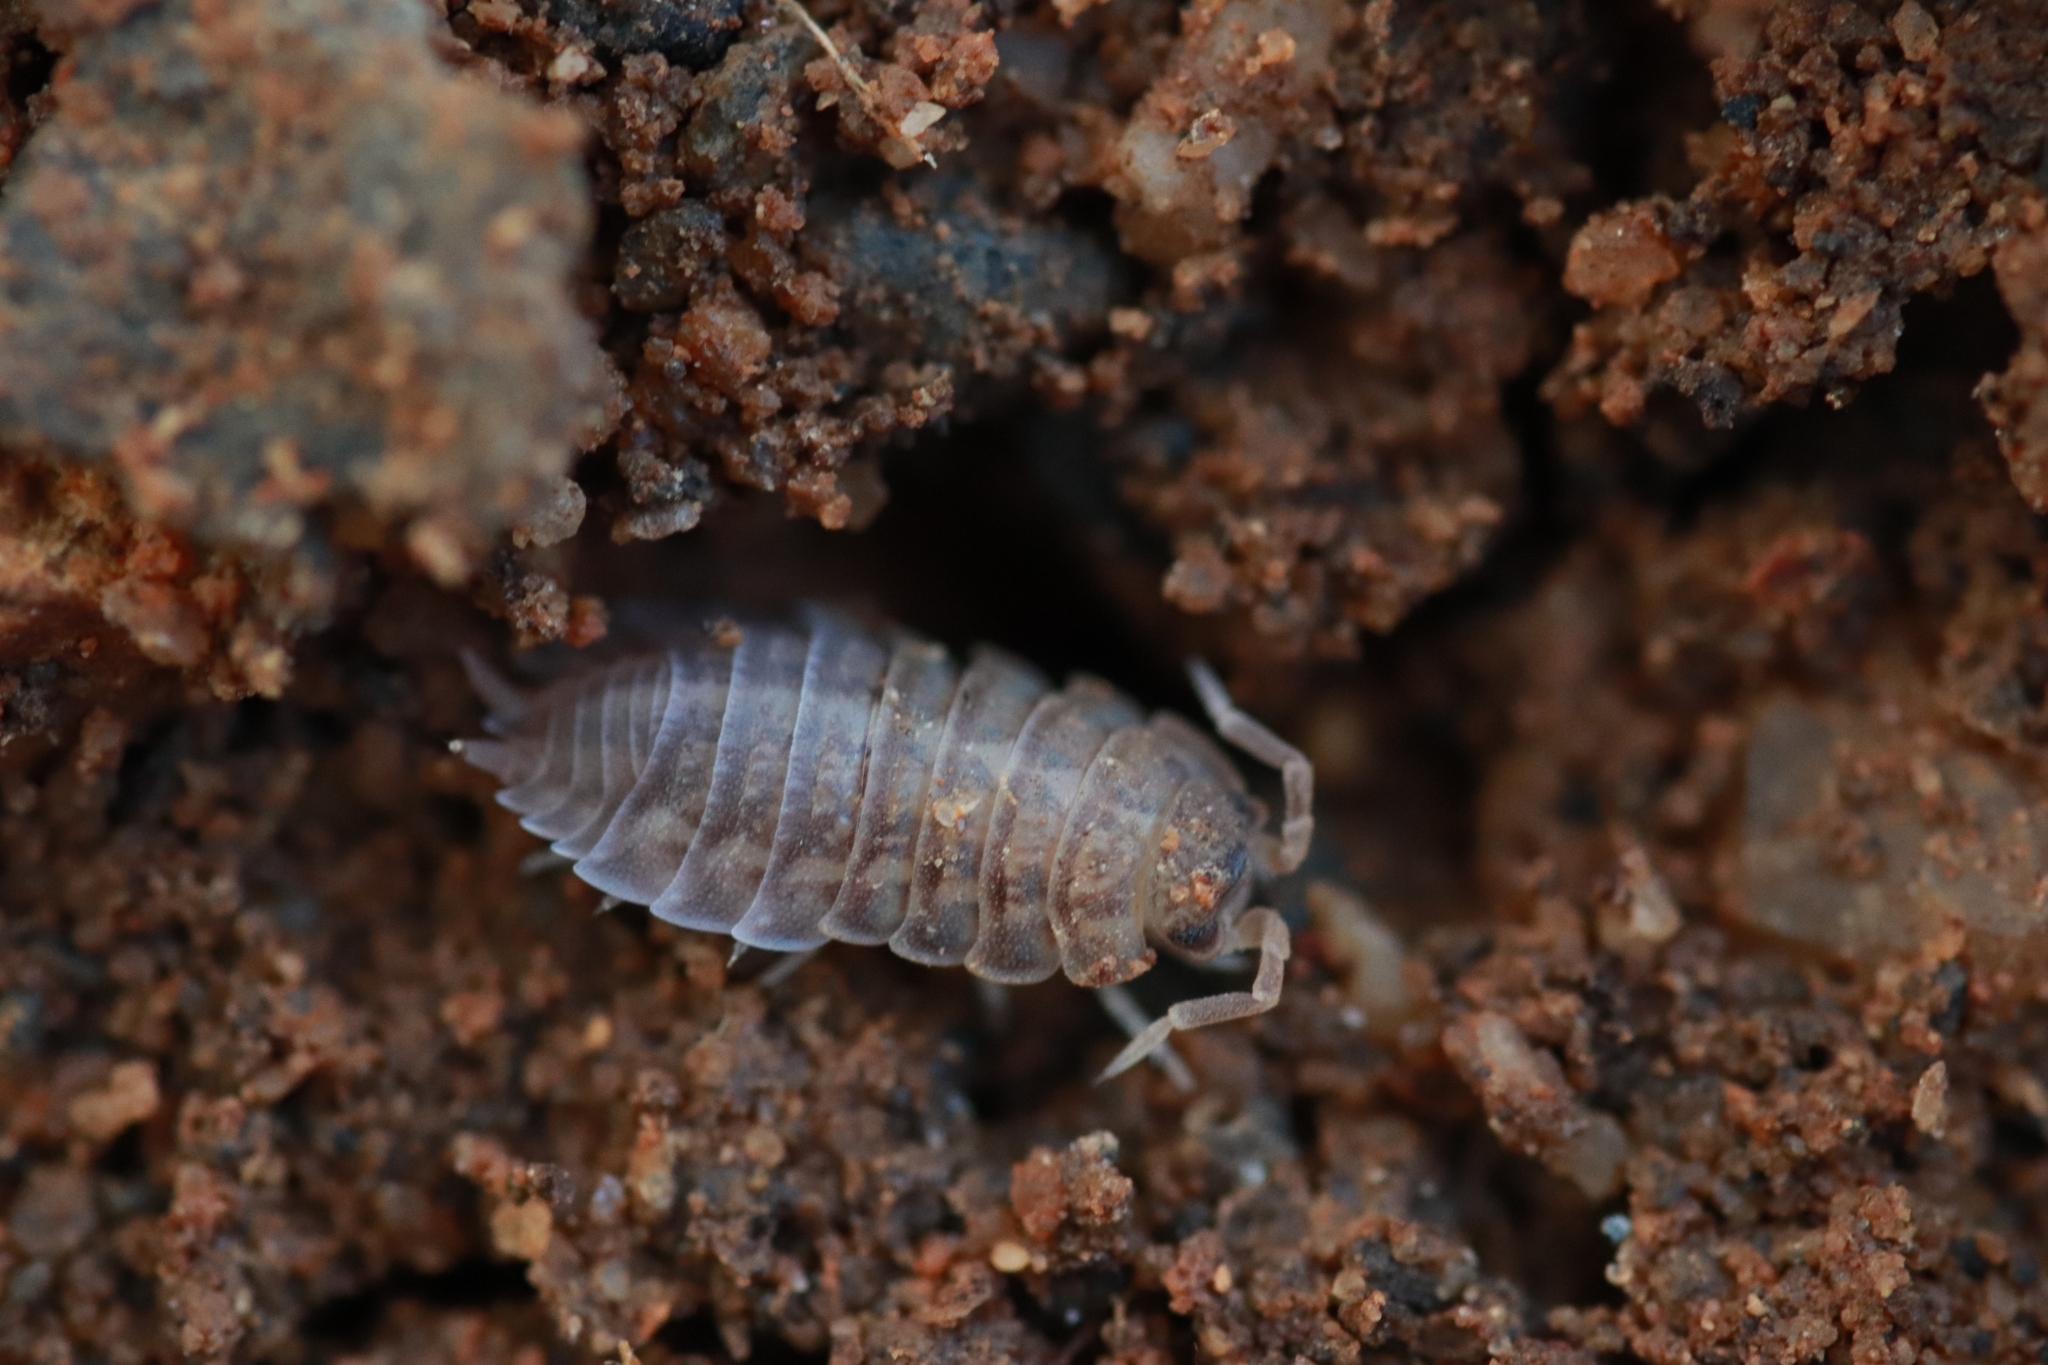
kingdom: Animalia
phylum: Arthropoda
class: Malacostraca
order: Isopoda
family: Porcellionidae
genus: Lucasius
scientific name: Lucasius pallidus
